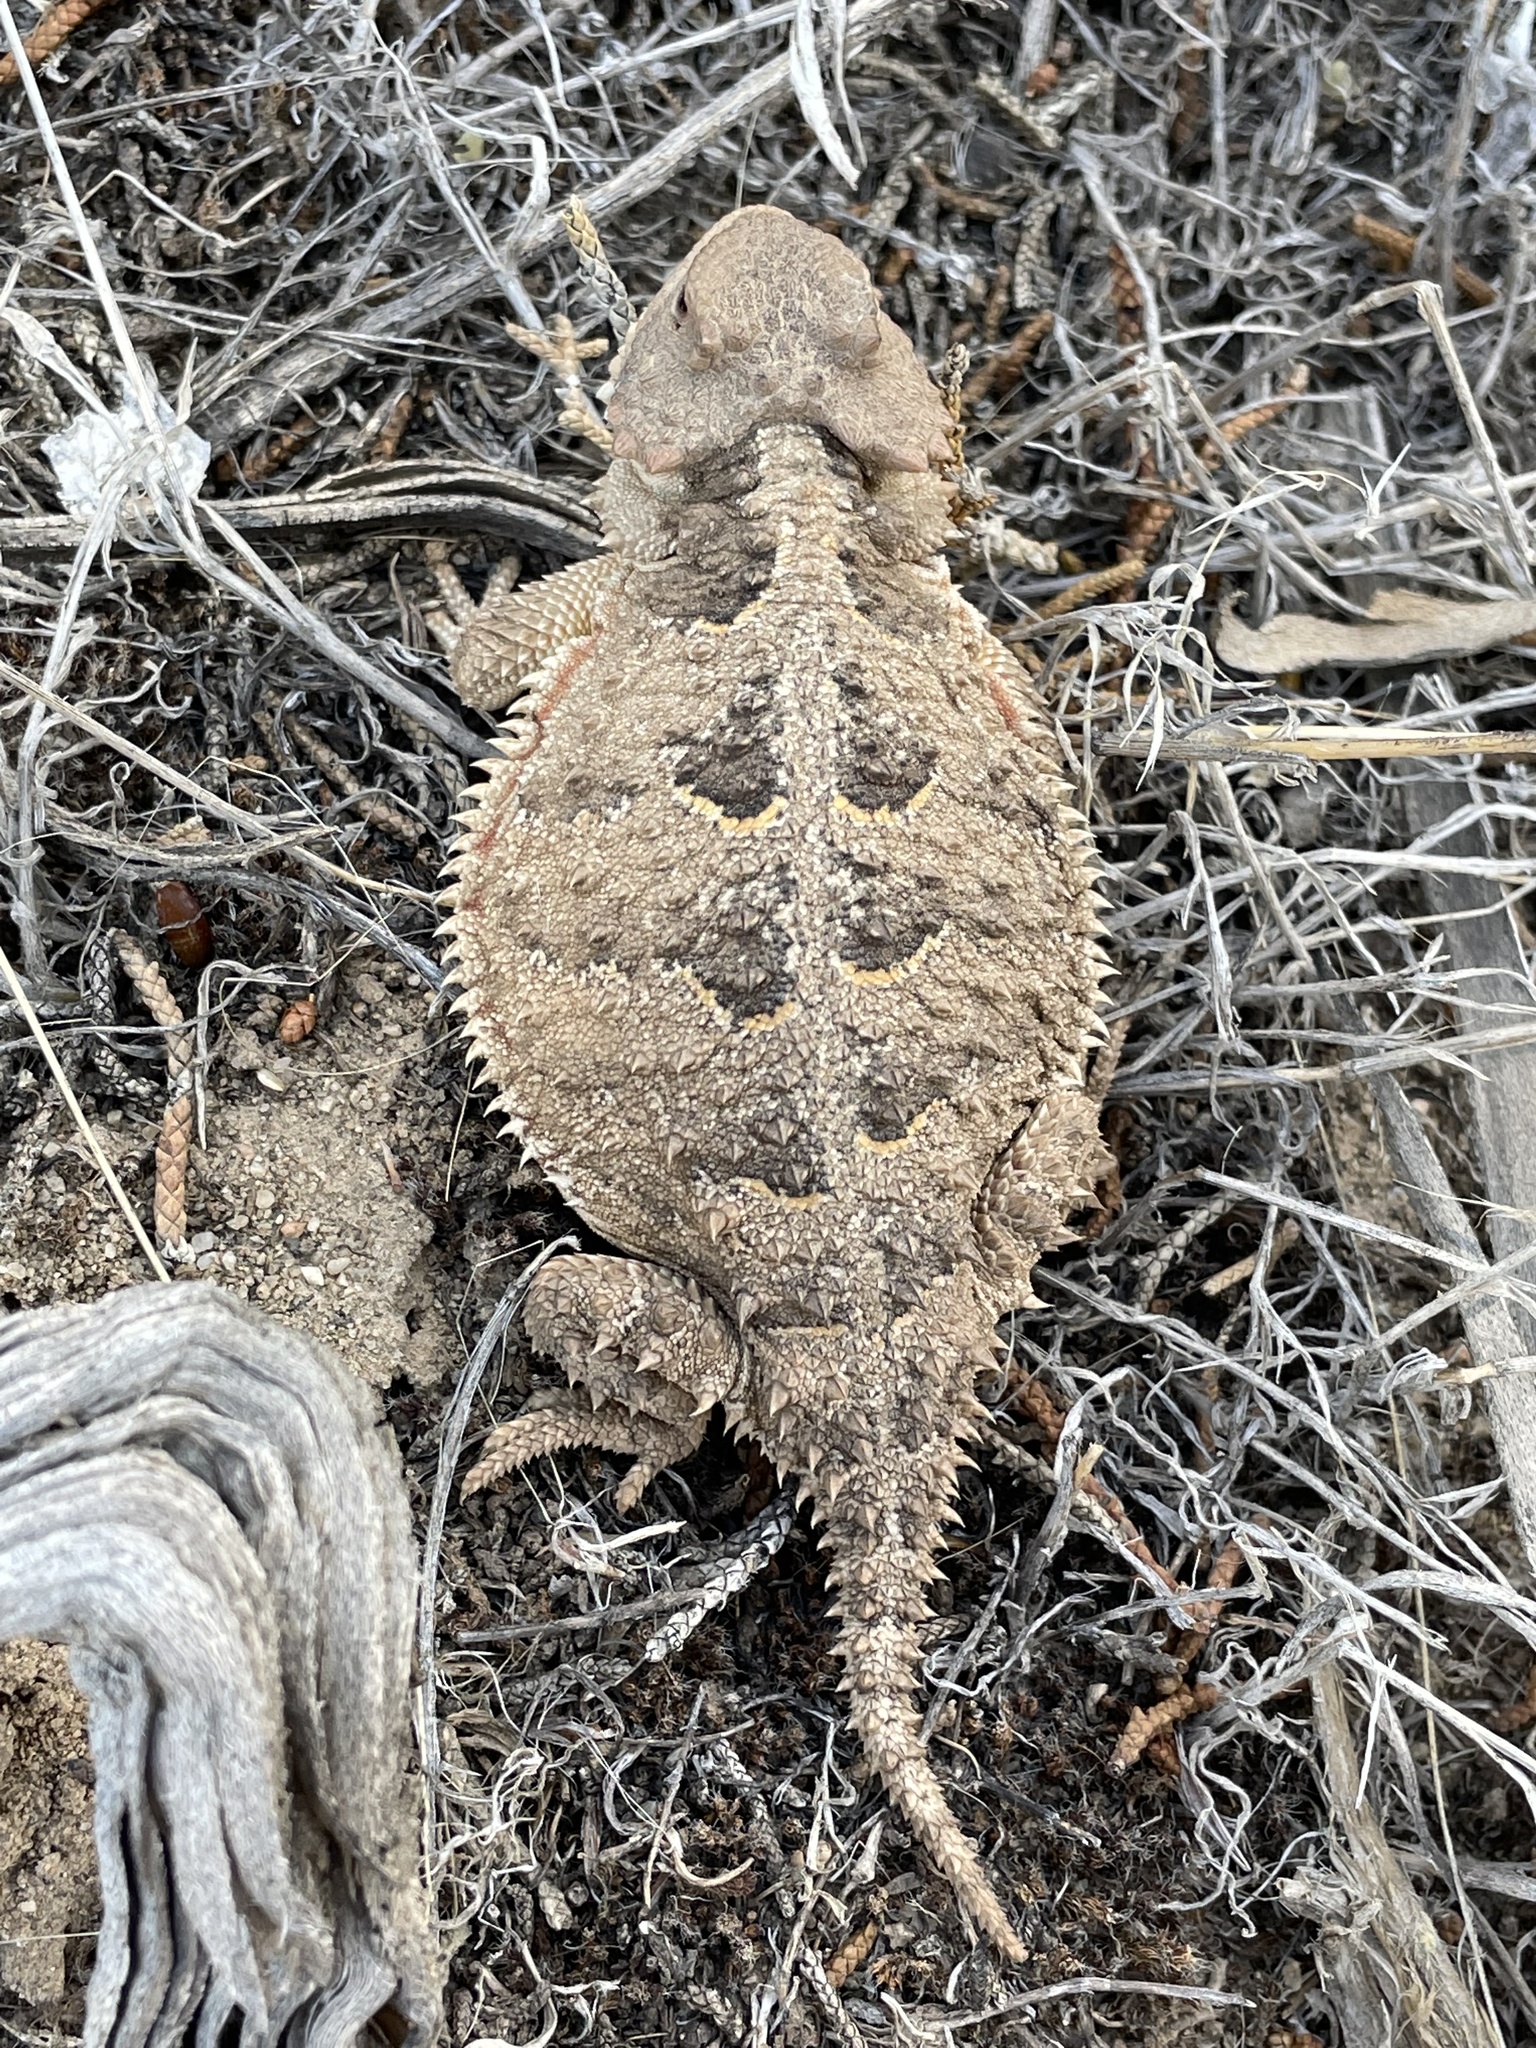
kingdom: Animalia
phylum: Chordata
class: Squamata
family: Phrynosomatidae
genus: Phrynosoma
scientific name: Phrynosoma hernandesi
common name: Greater short-horned lizard
